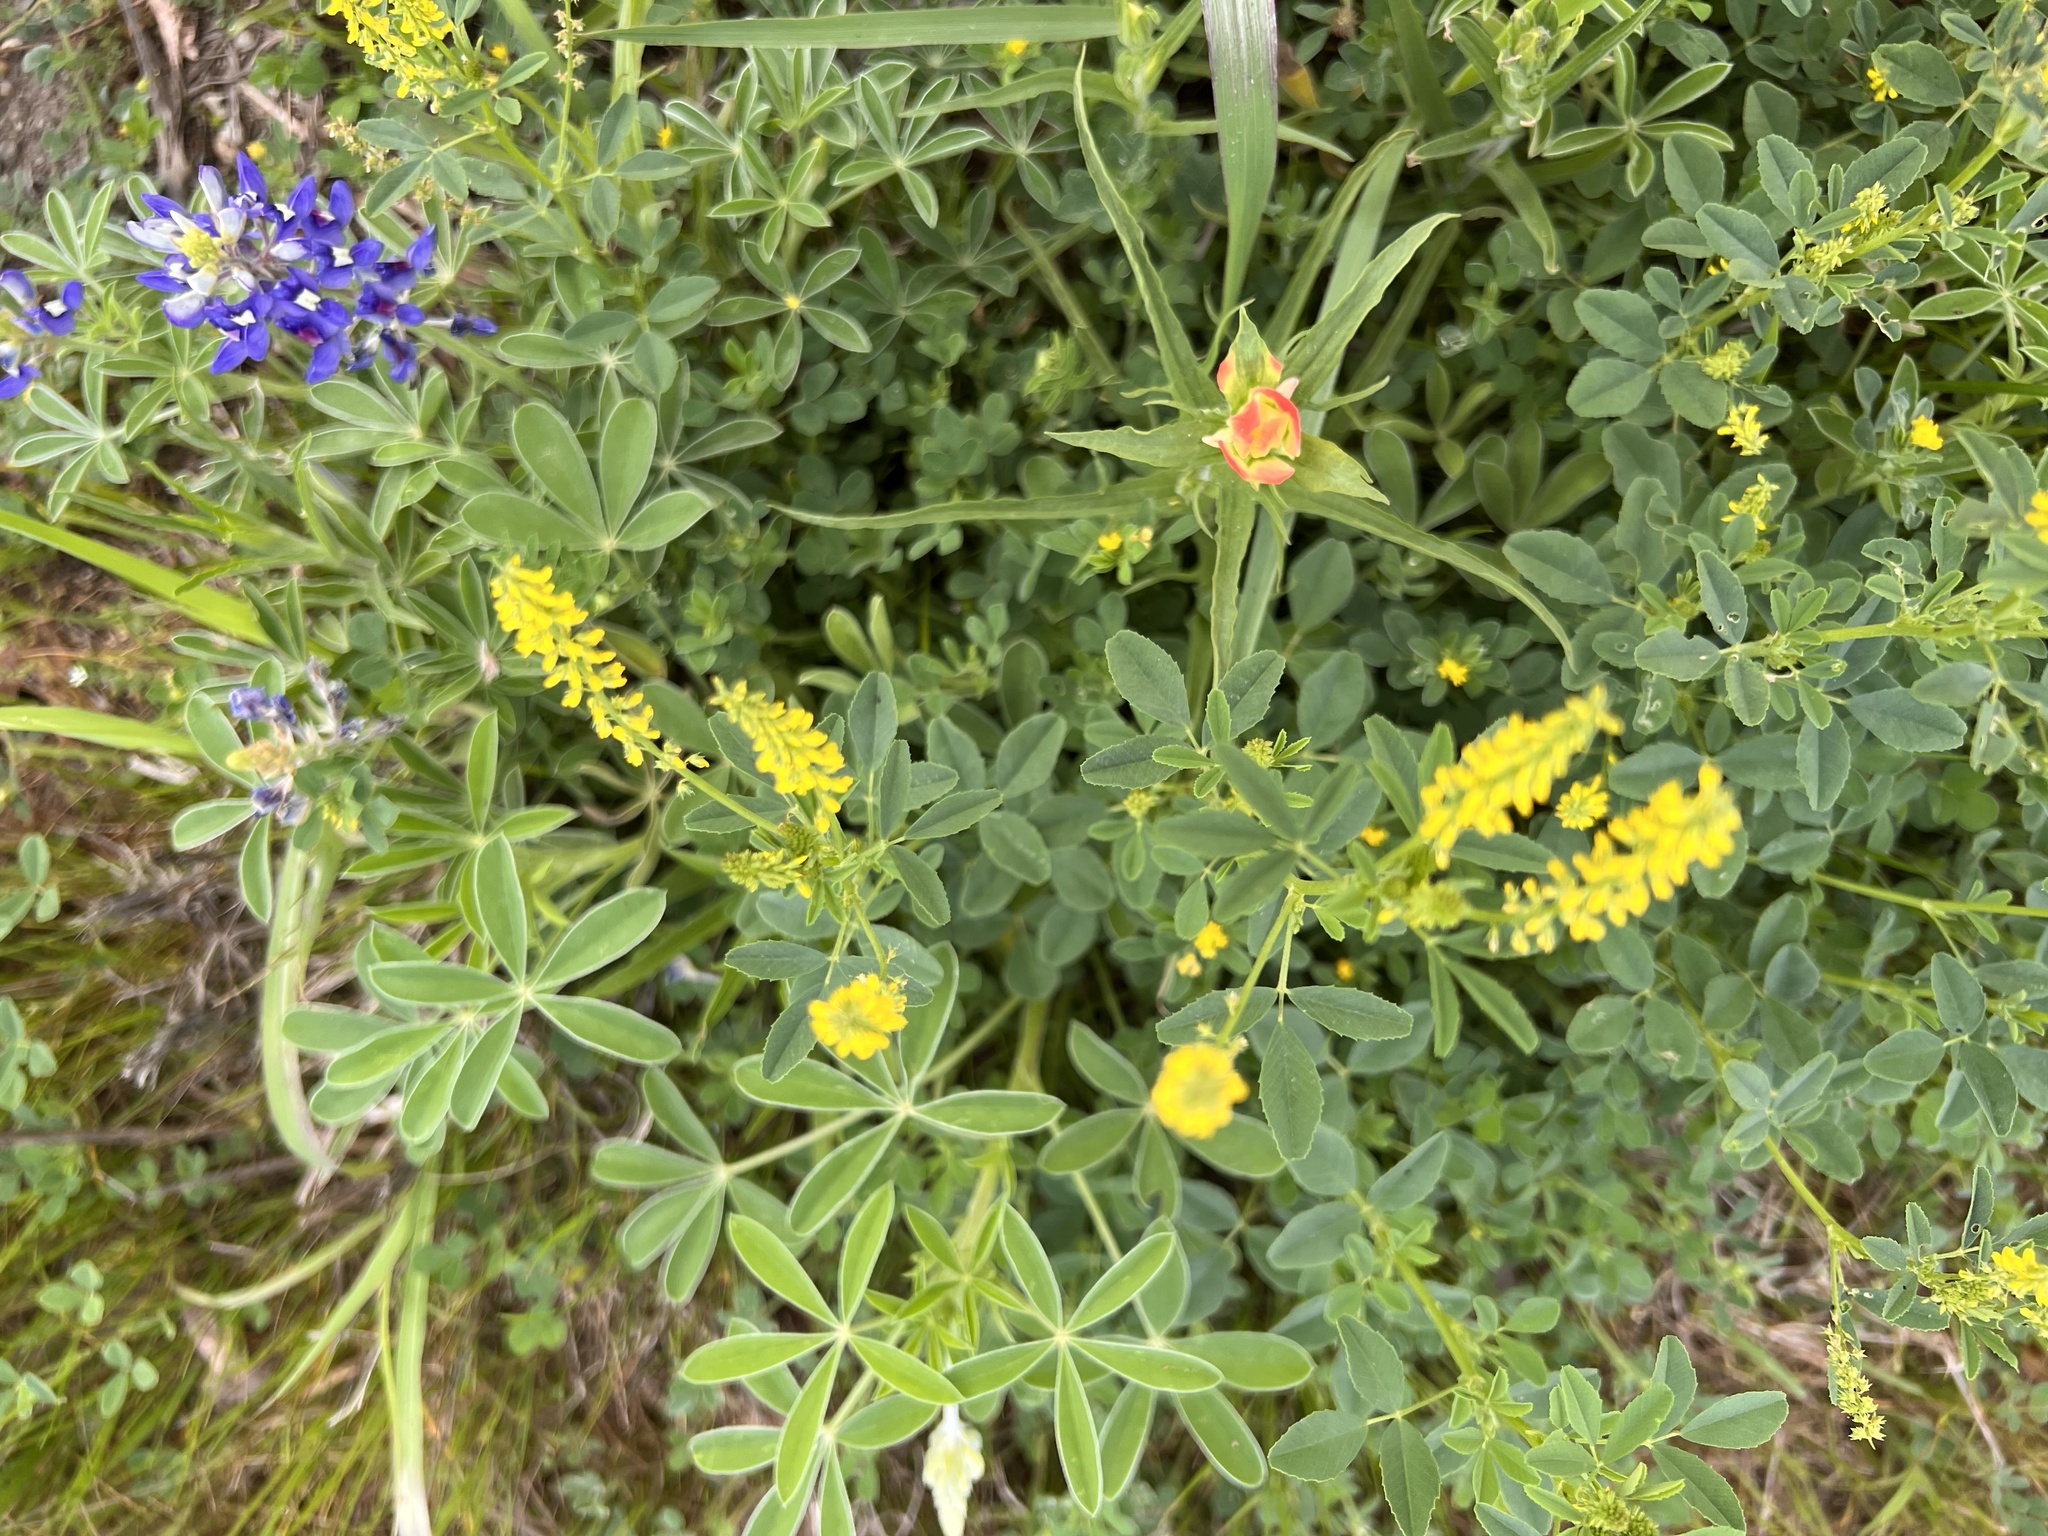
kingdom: Plantae
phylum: Tracheophyta
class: Magnoliopsida
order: Fabales
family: Fabaceae
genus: Melilotus
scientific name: Melilotus indicus
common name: Small melilot
